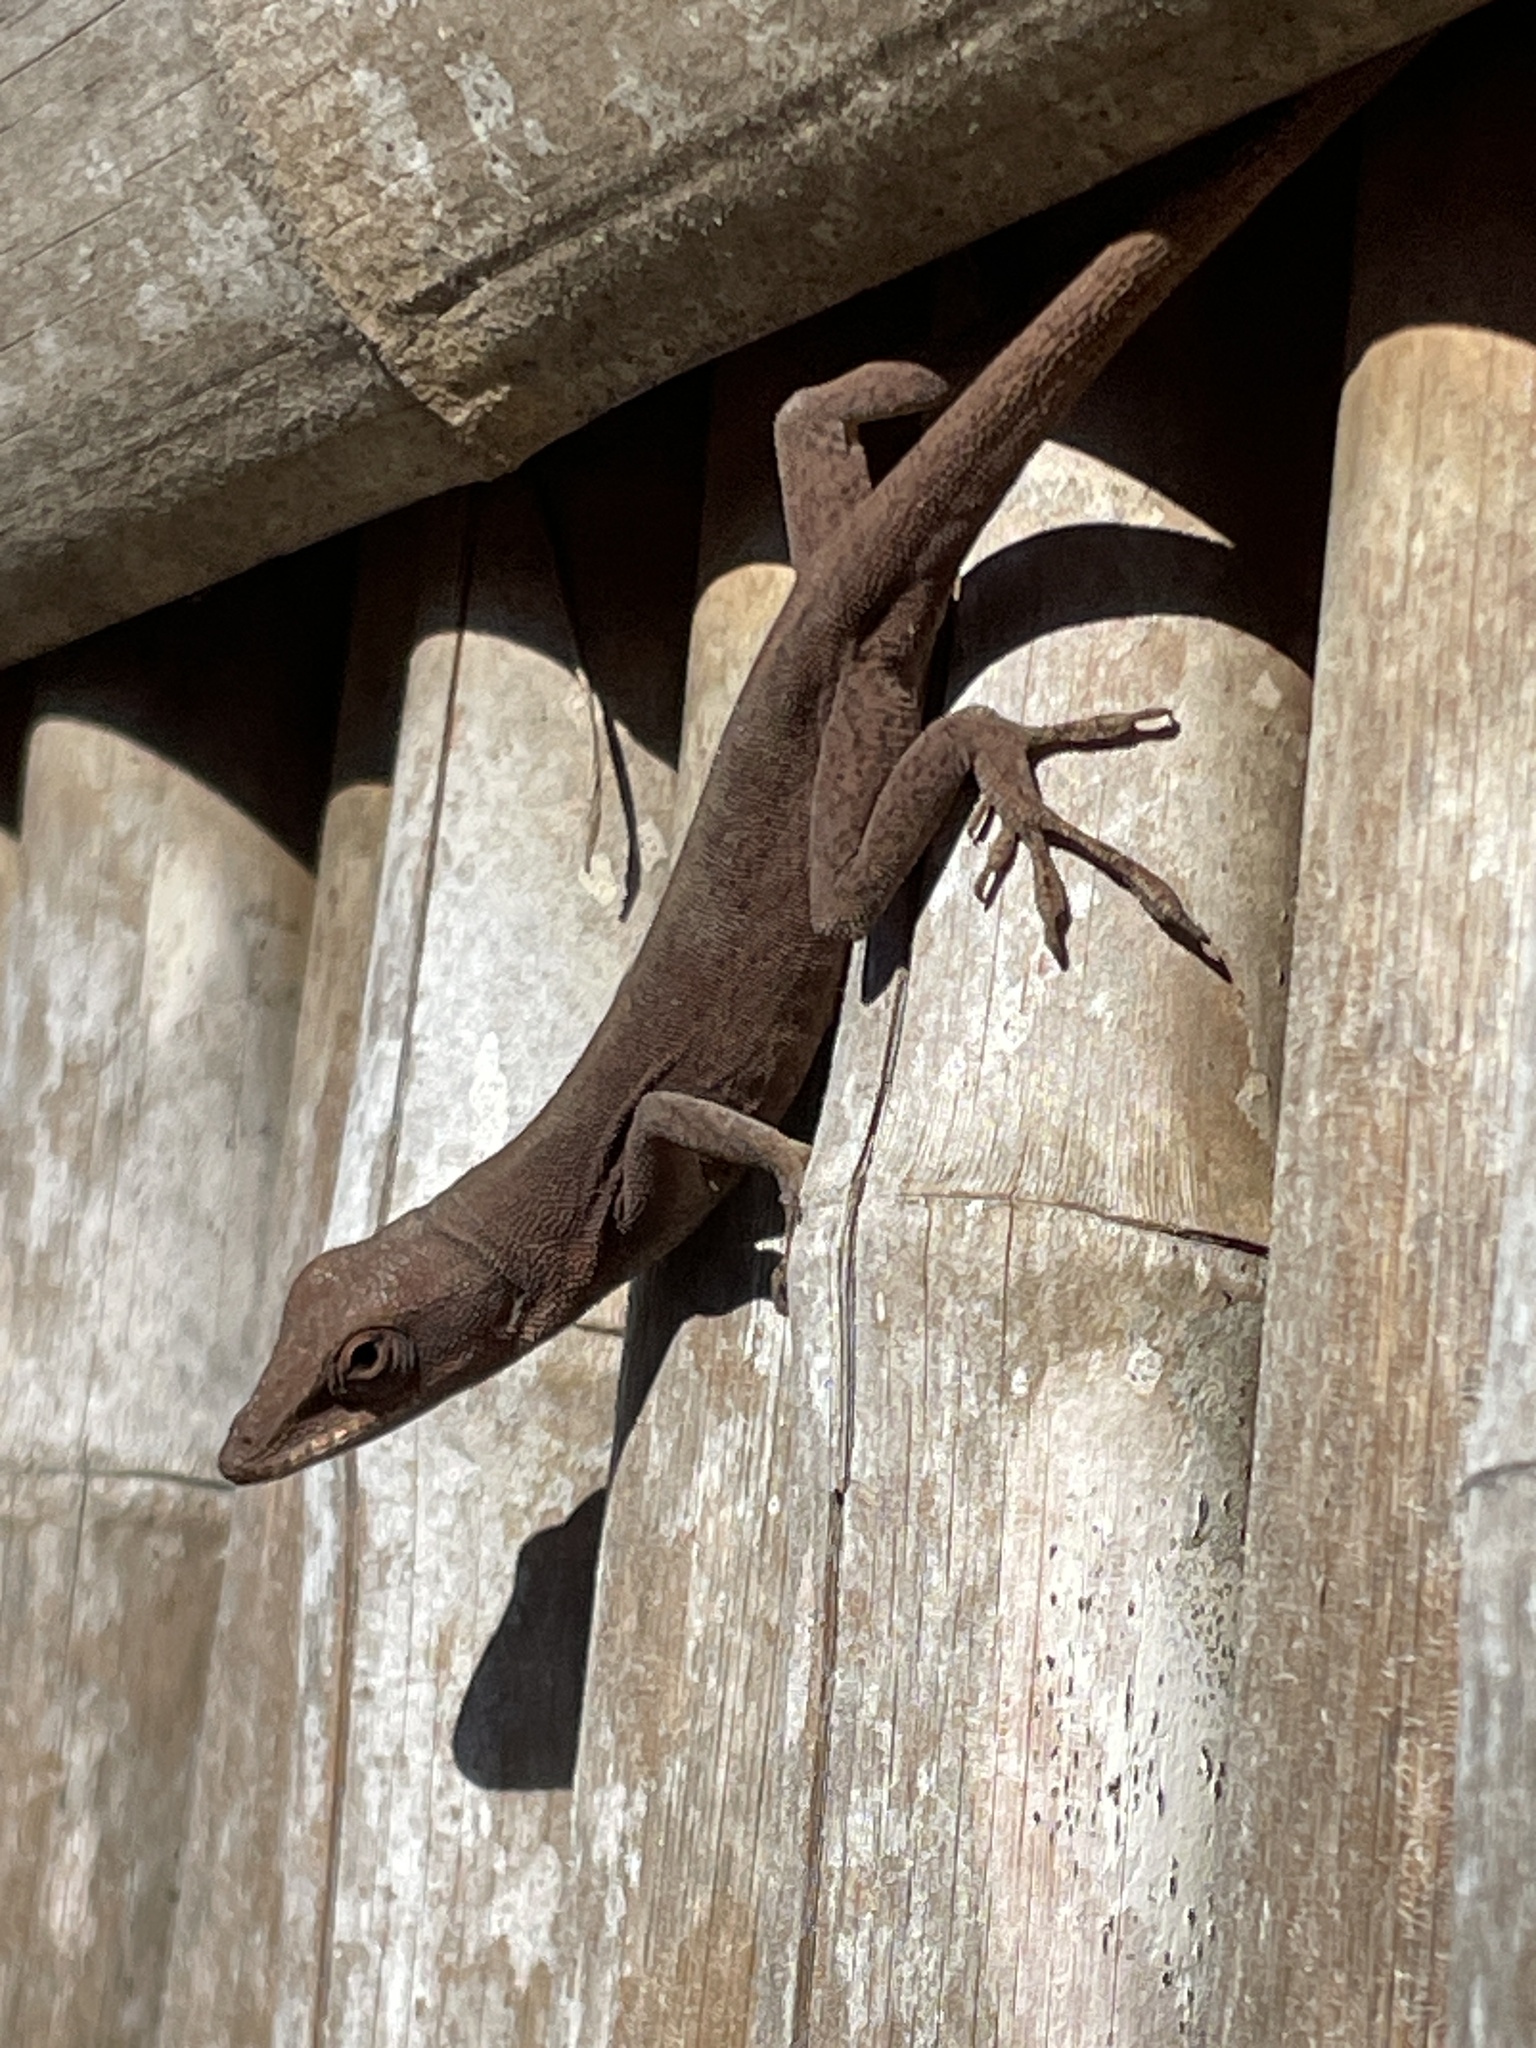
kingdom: Animalia
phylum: Chordata
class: Squamata
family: Dactyloidae
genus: Anolis
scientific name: Anolis carolinensis
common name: Green anole
